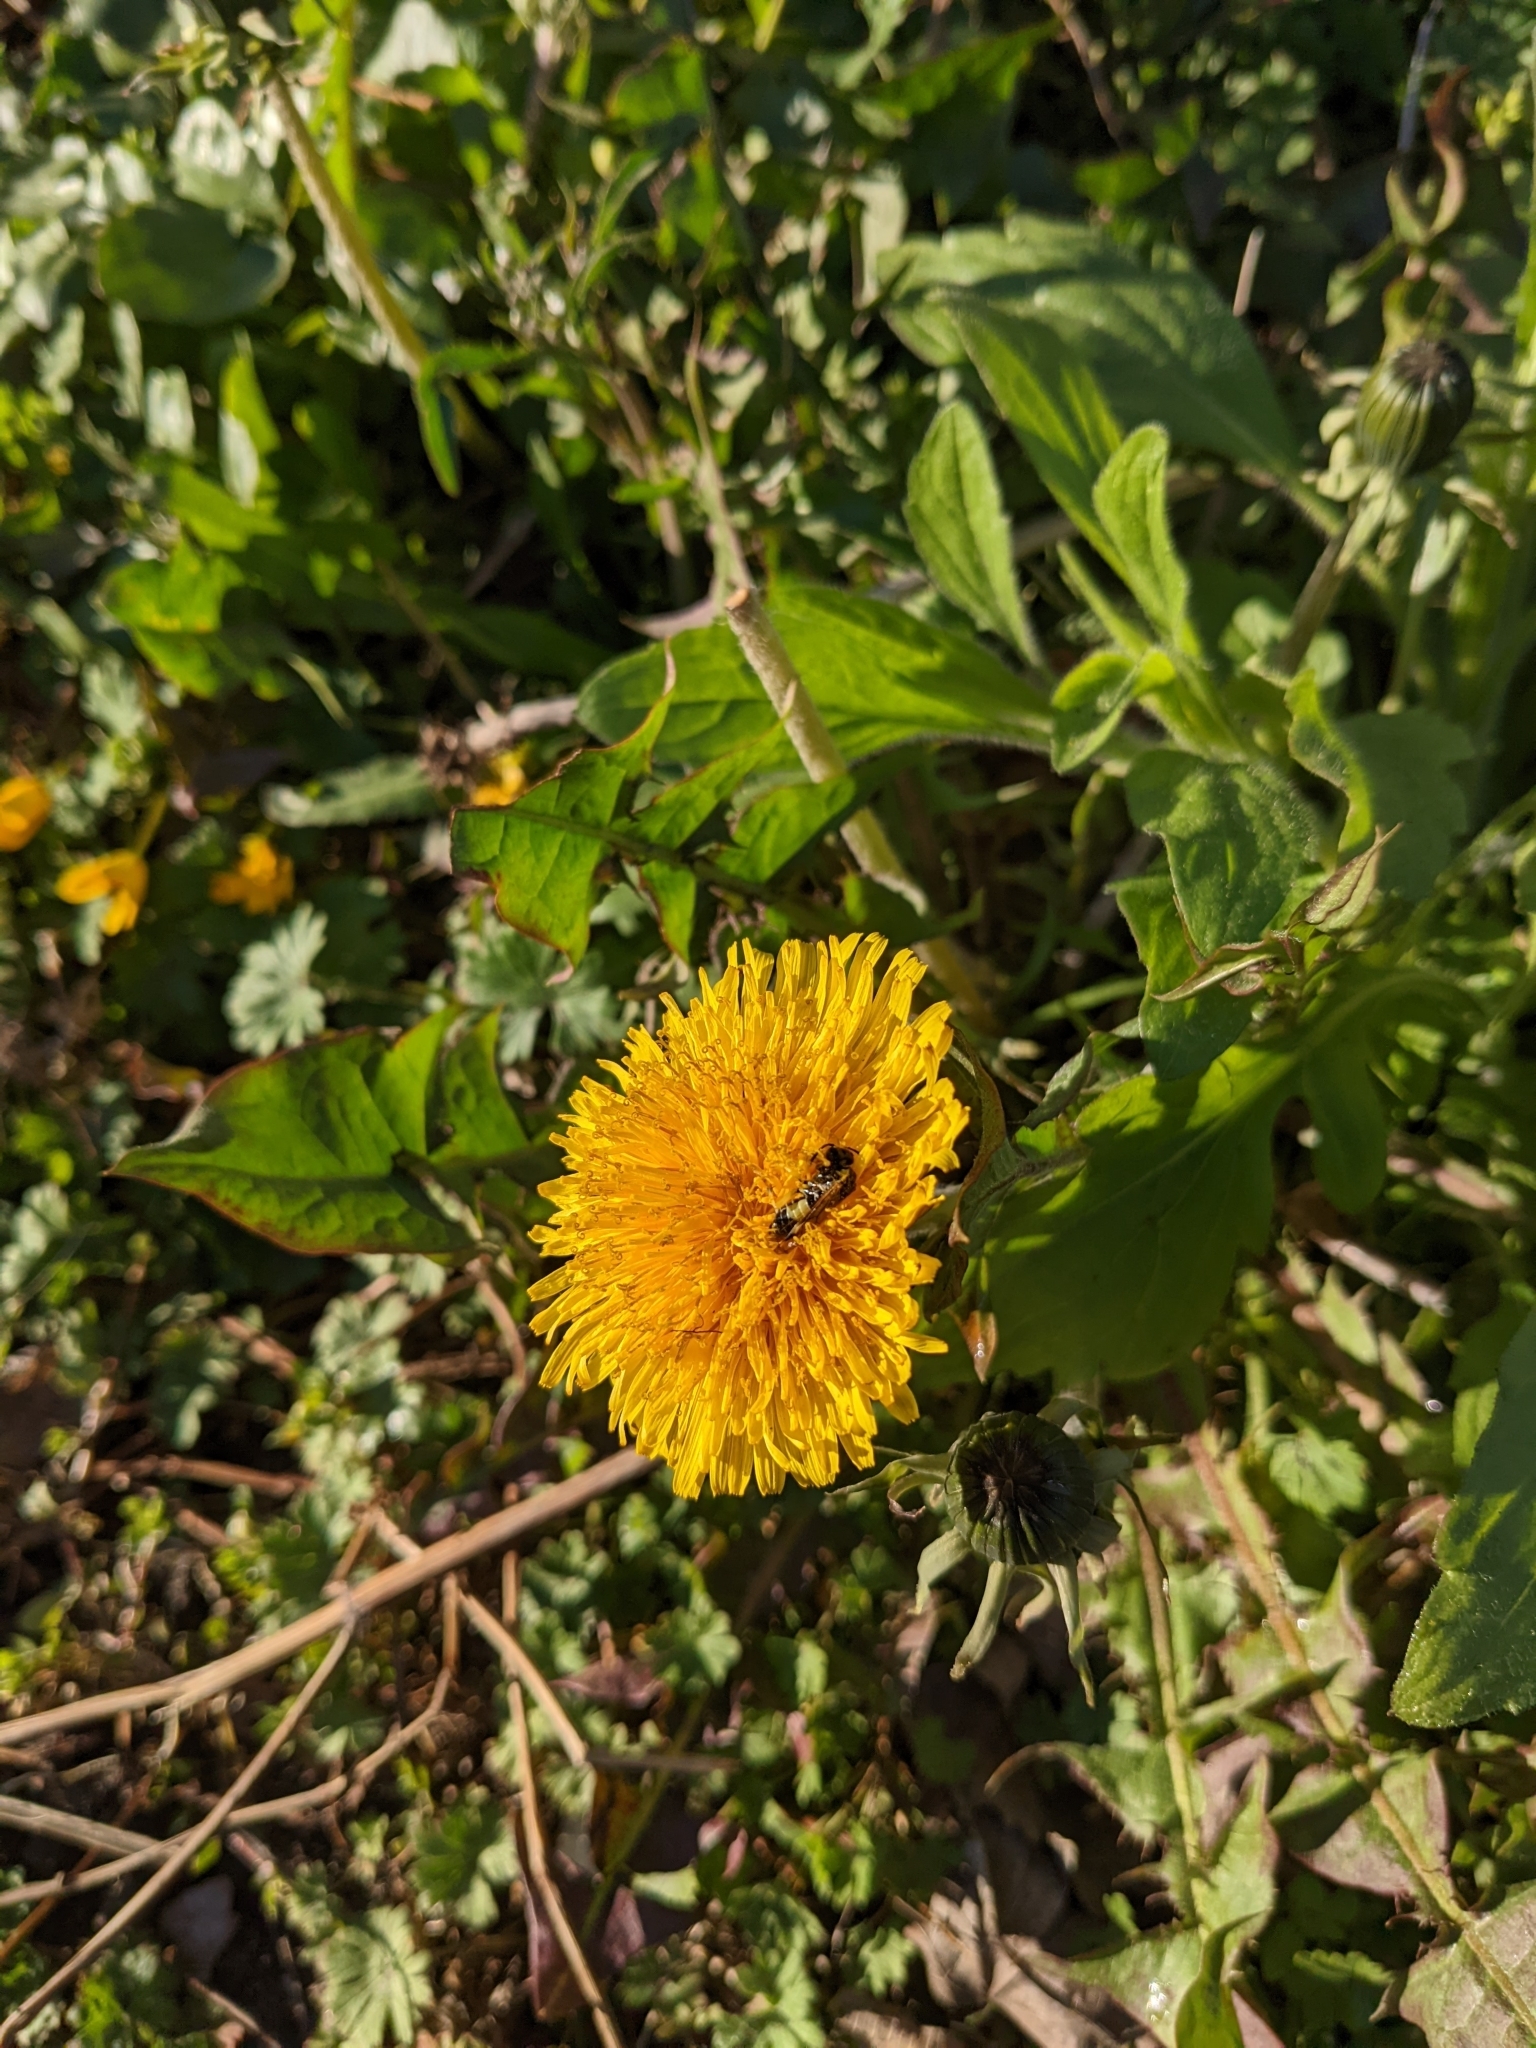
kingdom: Plantae
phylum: Tracheophyta
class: Magnoliopsida
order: Asterales
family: Asteraceae
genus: Taraxacum
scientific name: Taraxacum officinale
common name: Common dandelion
